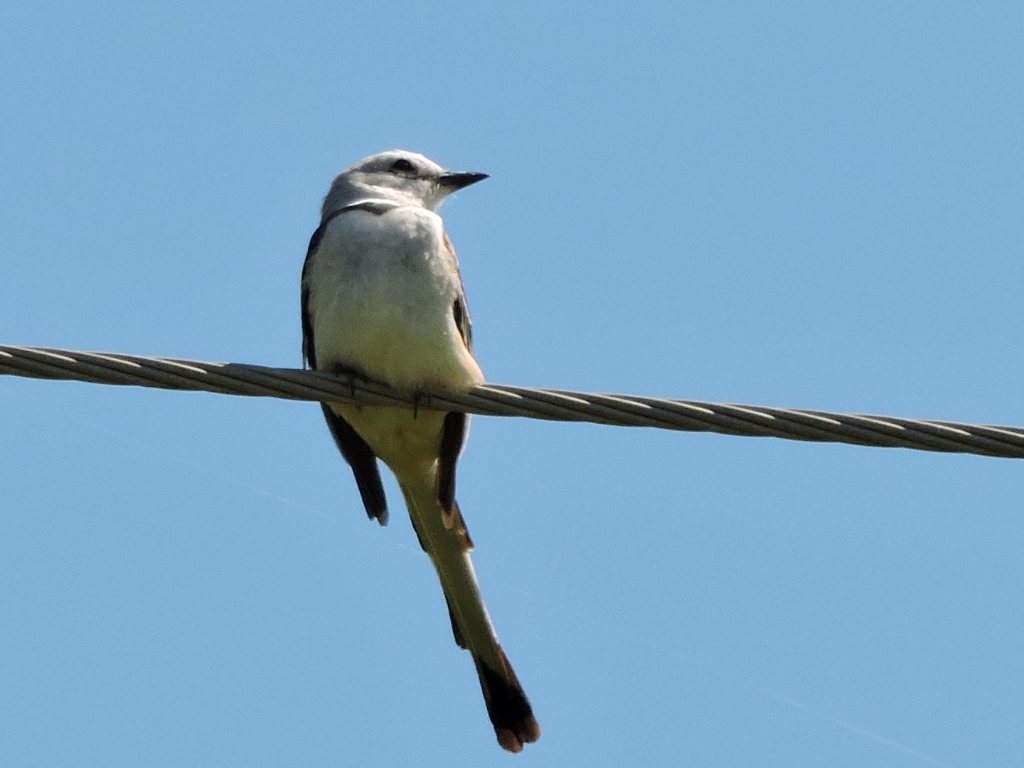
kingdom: Animalia
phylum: Chordata
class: Aves
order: Passeriformes
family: Tyrannidae
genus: Tyrannus
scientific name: Tyrannus forficatus
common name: Scissor-tailed flycatcher
